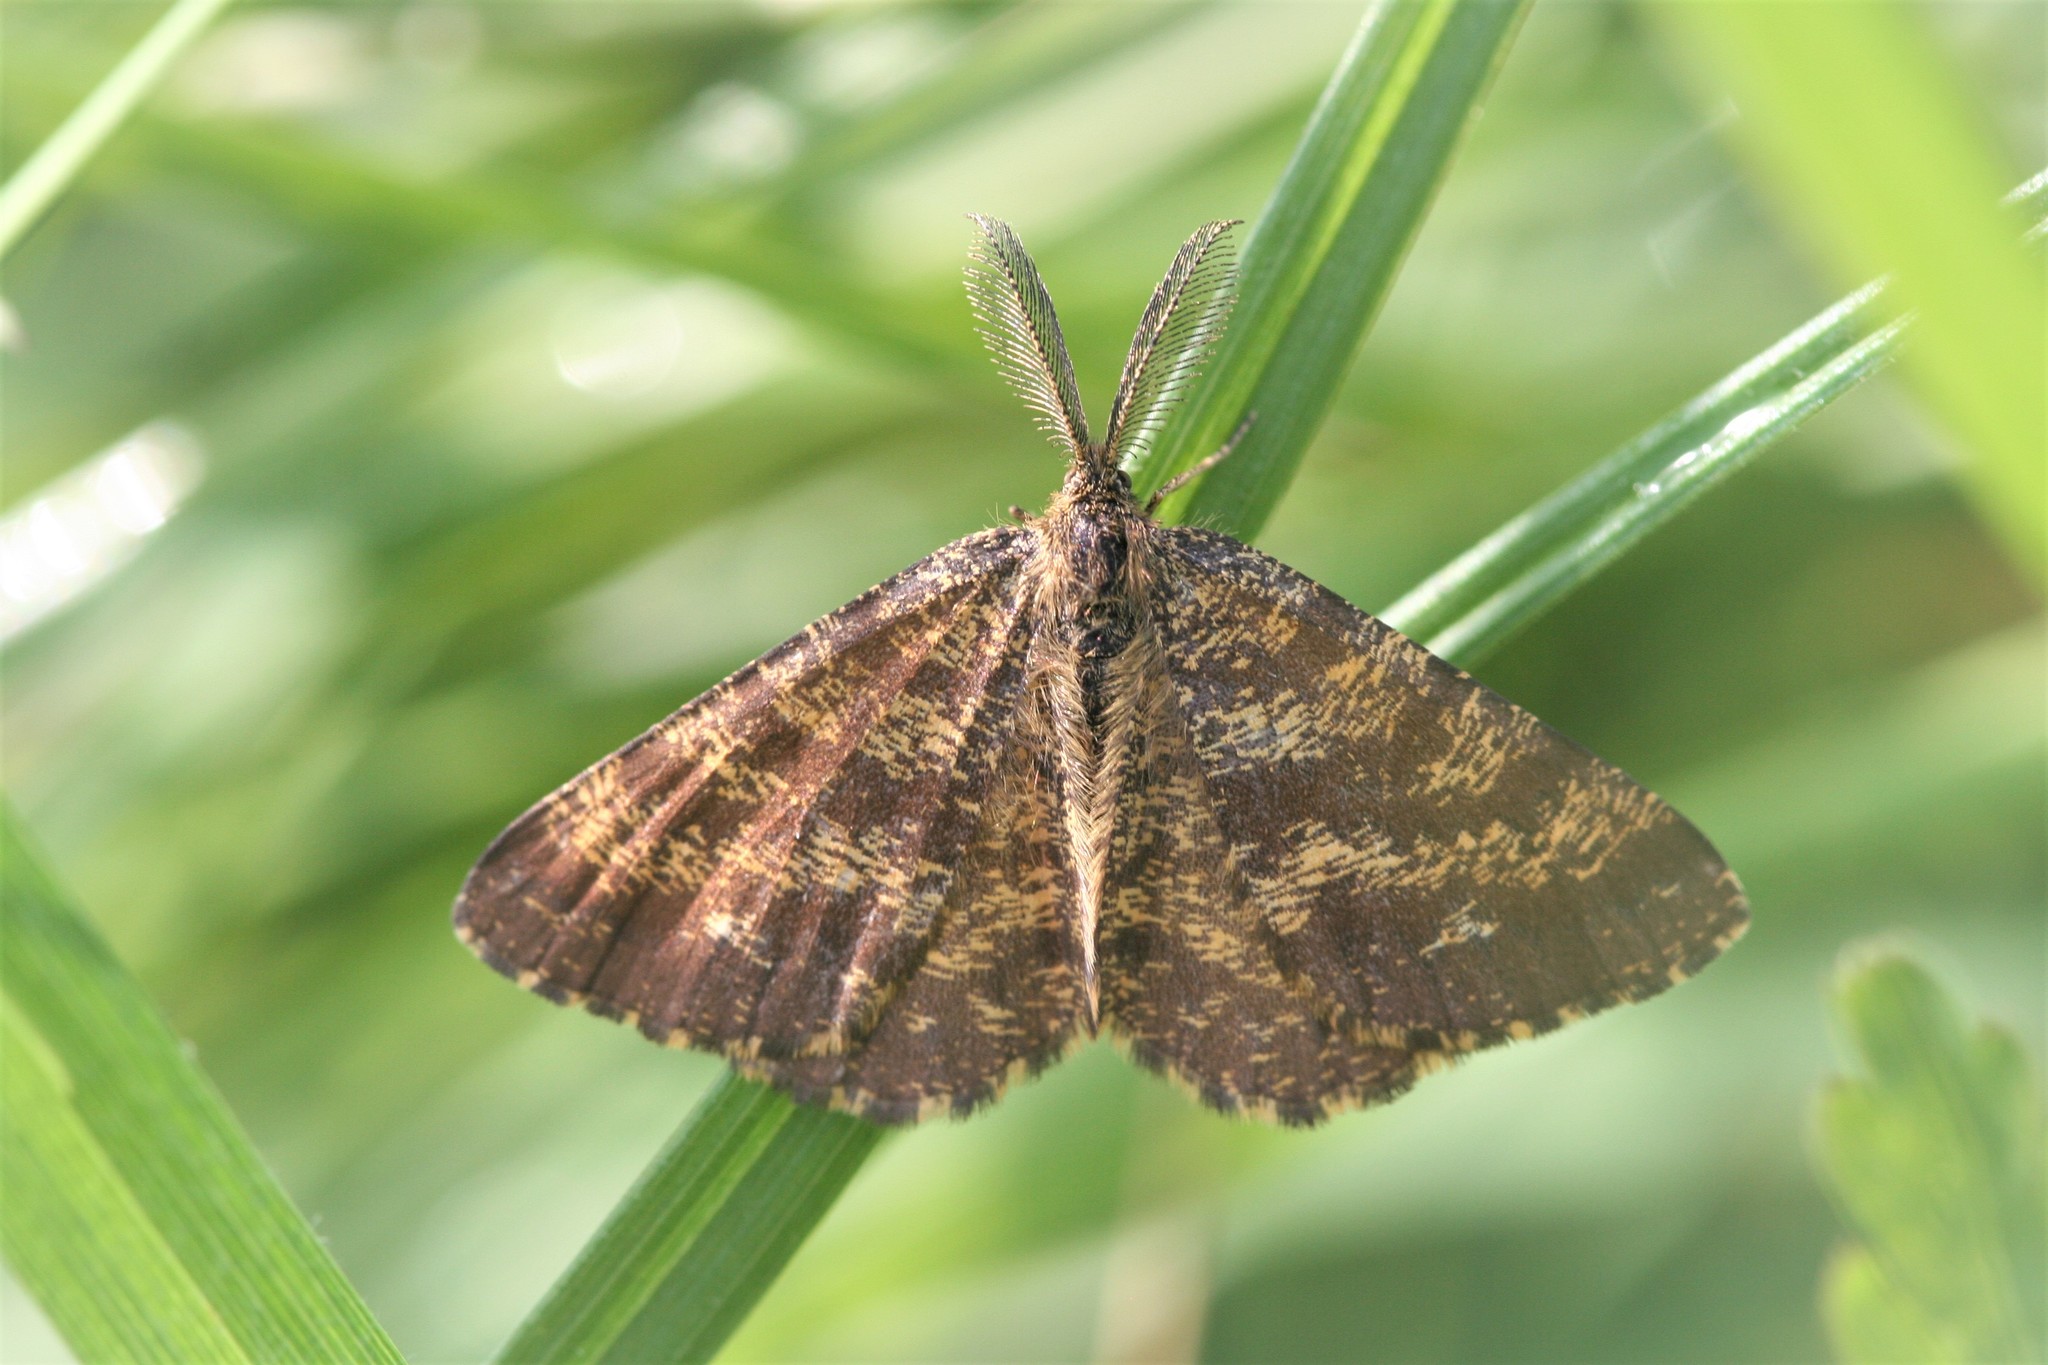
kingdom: Animalia
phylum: Arthropoda
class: Insecta
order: Lepidoptera
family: Geometridae
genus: Ematurga
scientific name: Ematurga atomaria
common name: Common heath
